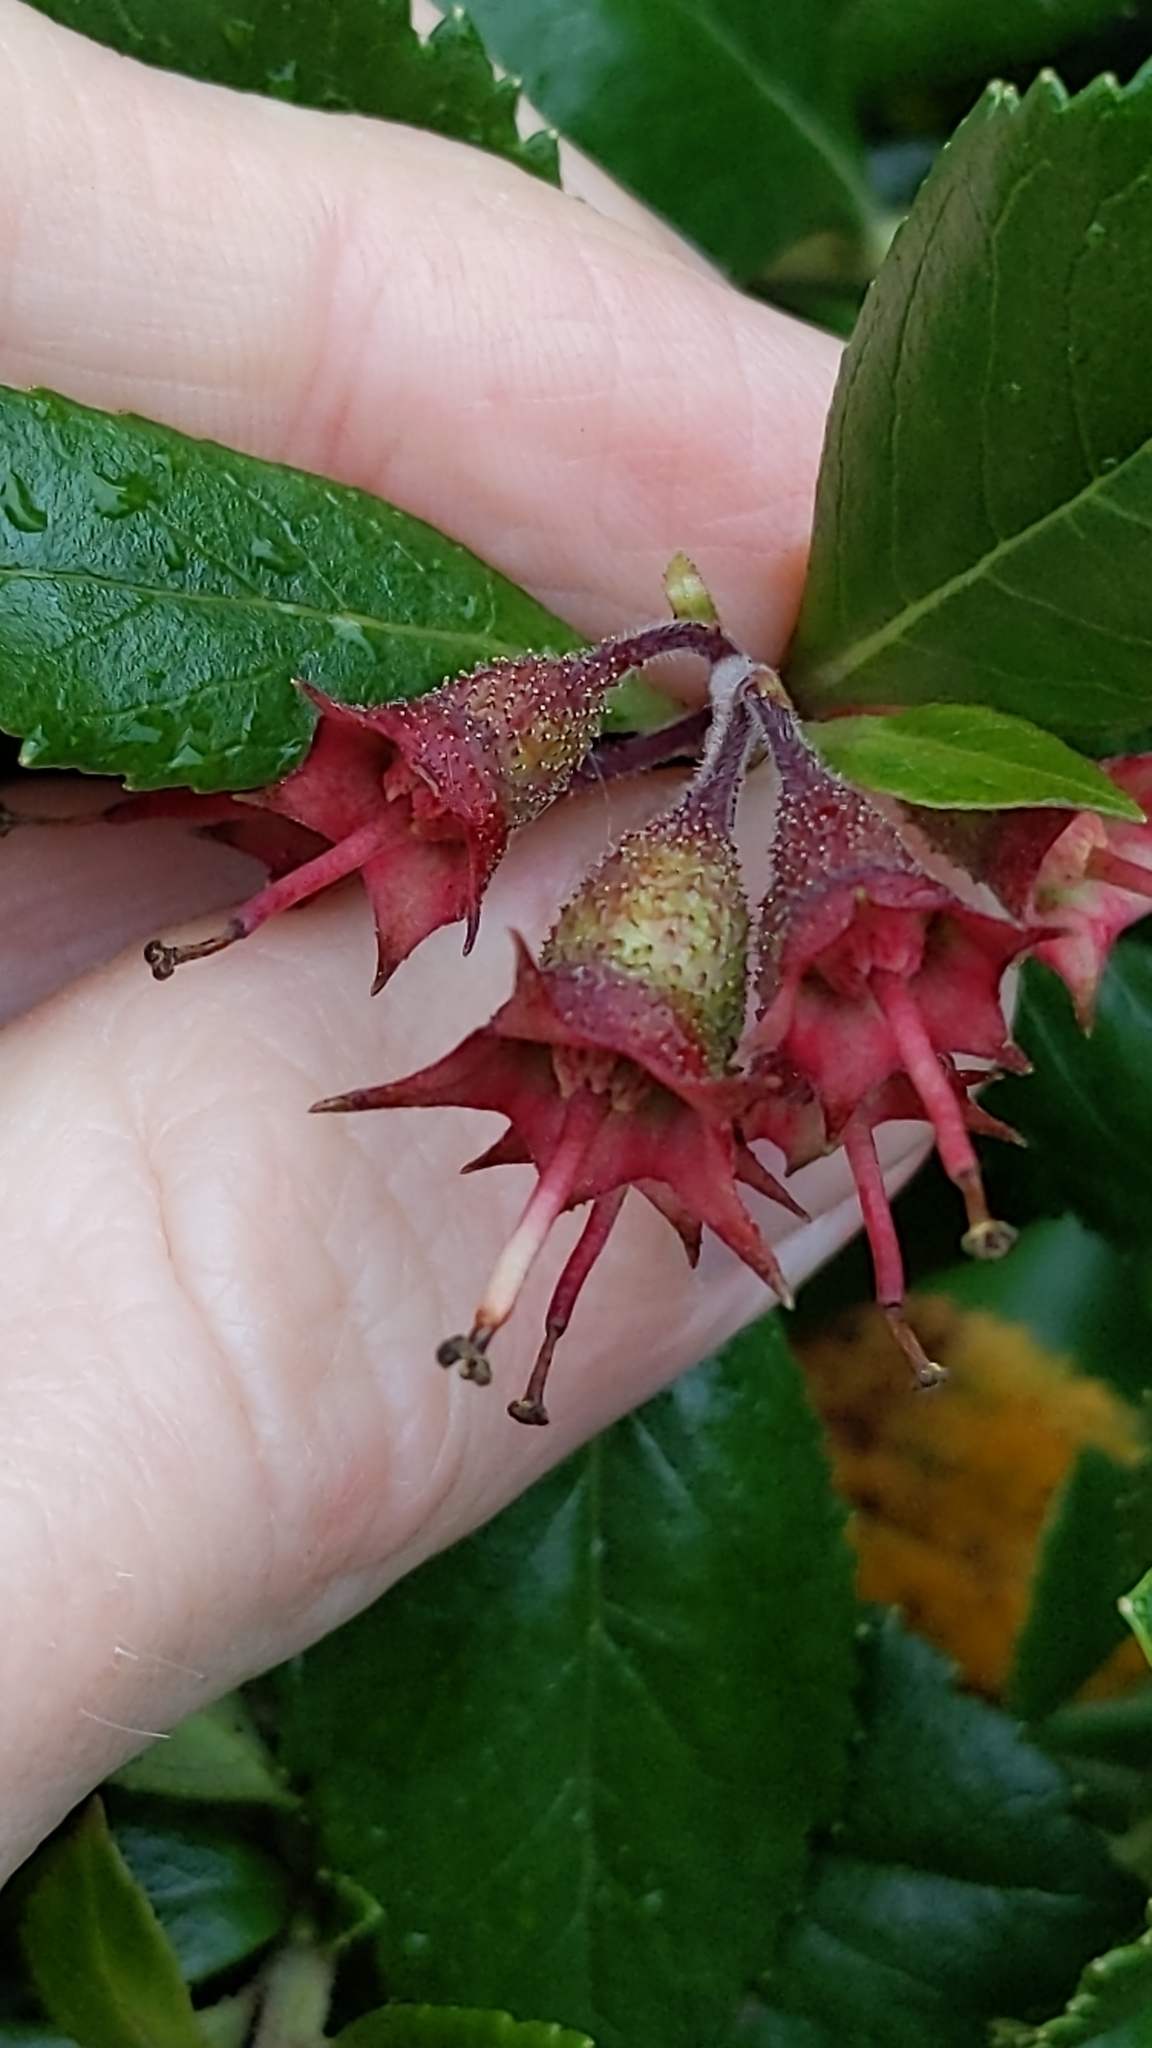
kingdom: Plantae
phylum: Tracheophyta
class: Magnoliopsida
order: Escalloniales
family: Escalloniaceae
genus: Escallonia
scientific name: Escallonia rubra
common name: Redclaws
